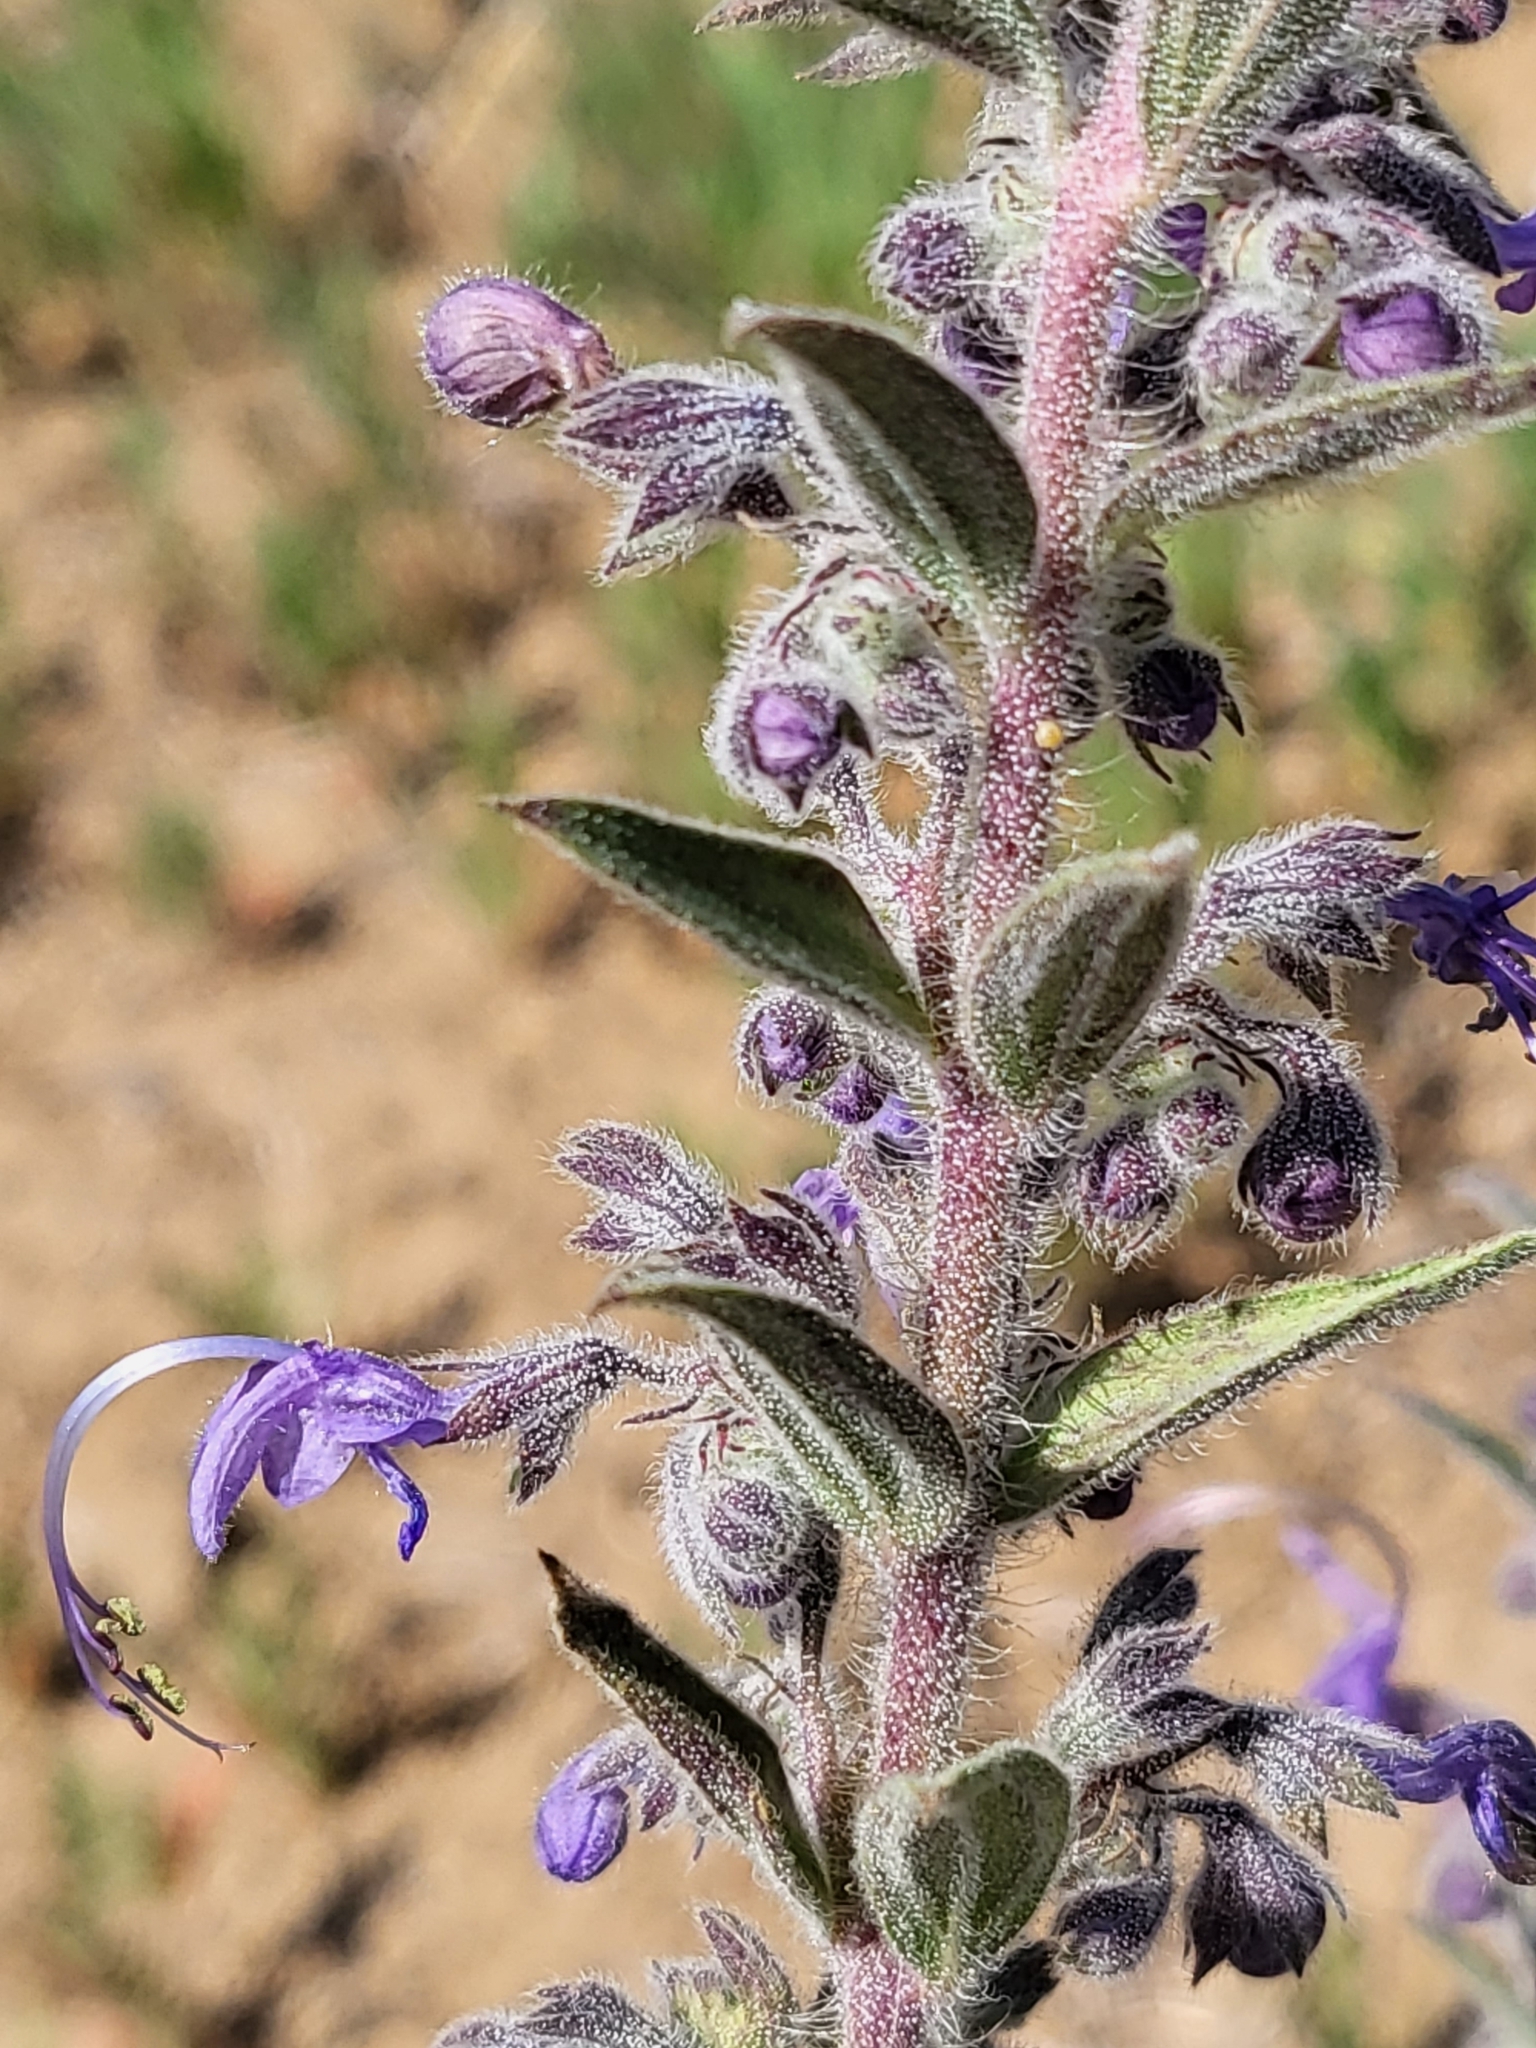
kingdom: Plantae
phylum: Tracheophyta
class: Magnoliopsida
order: Lamiales
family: Lamiaceae
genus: Trichostema
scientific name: Trichostema lanceolatum
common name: Vinegar-weed
